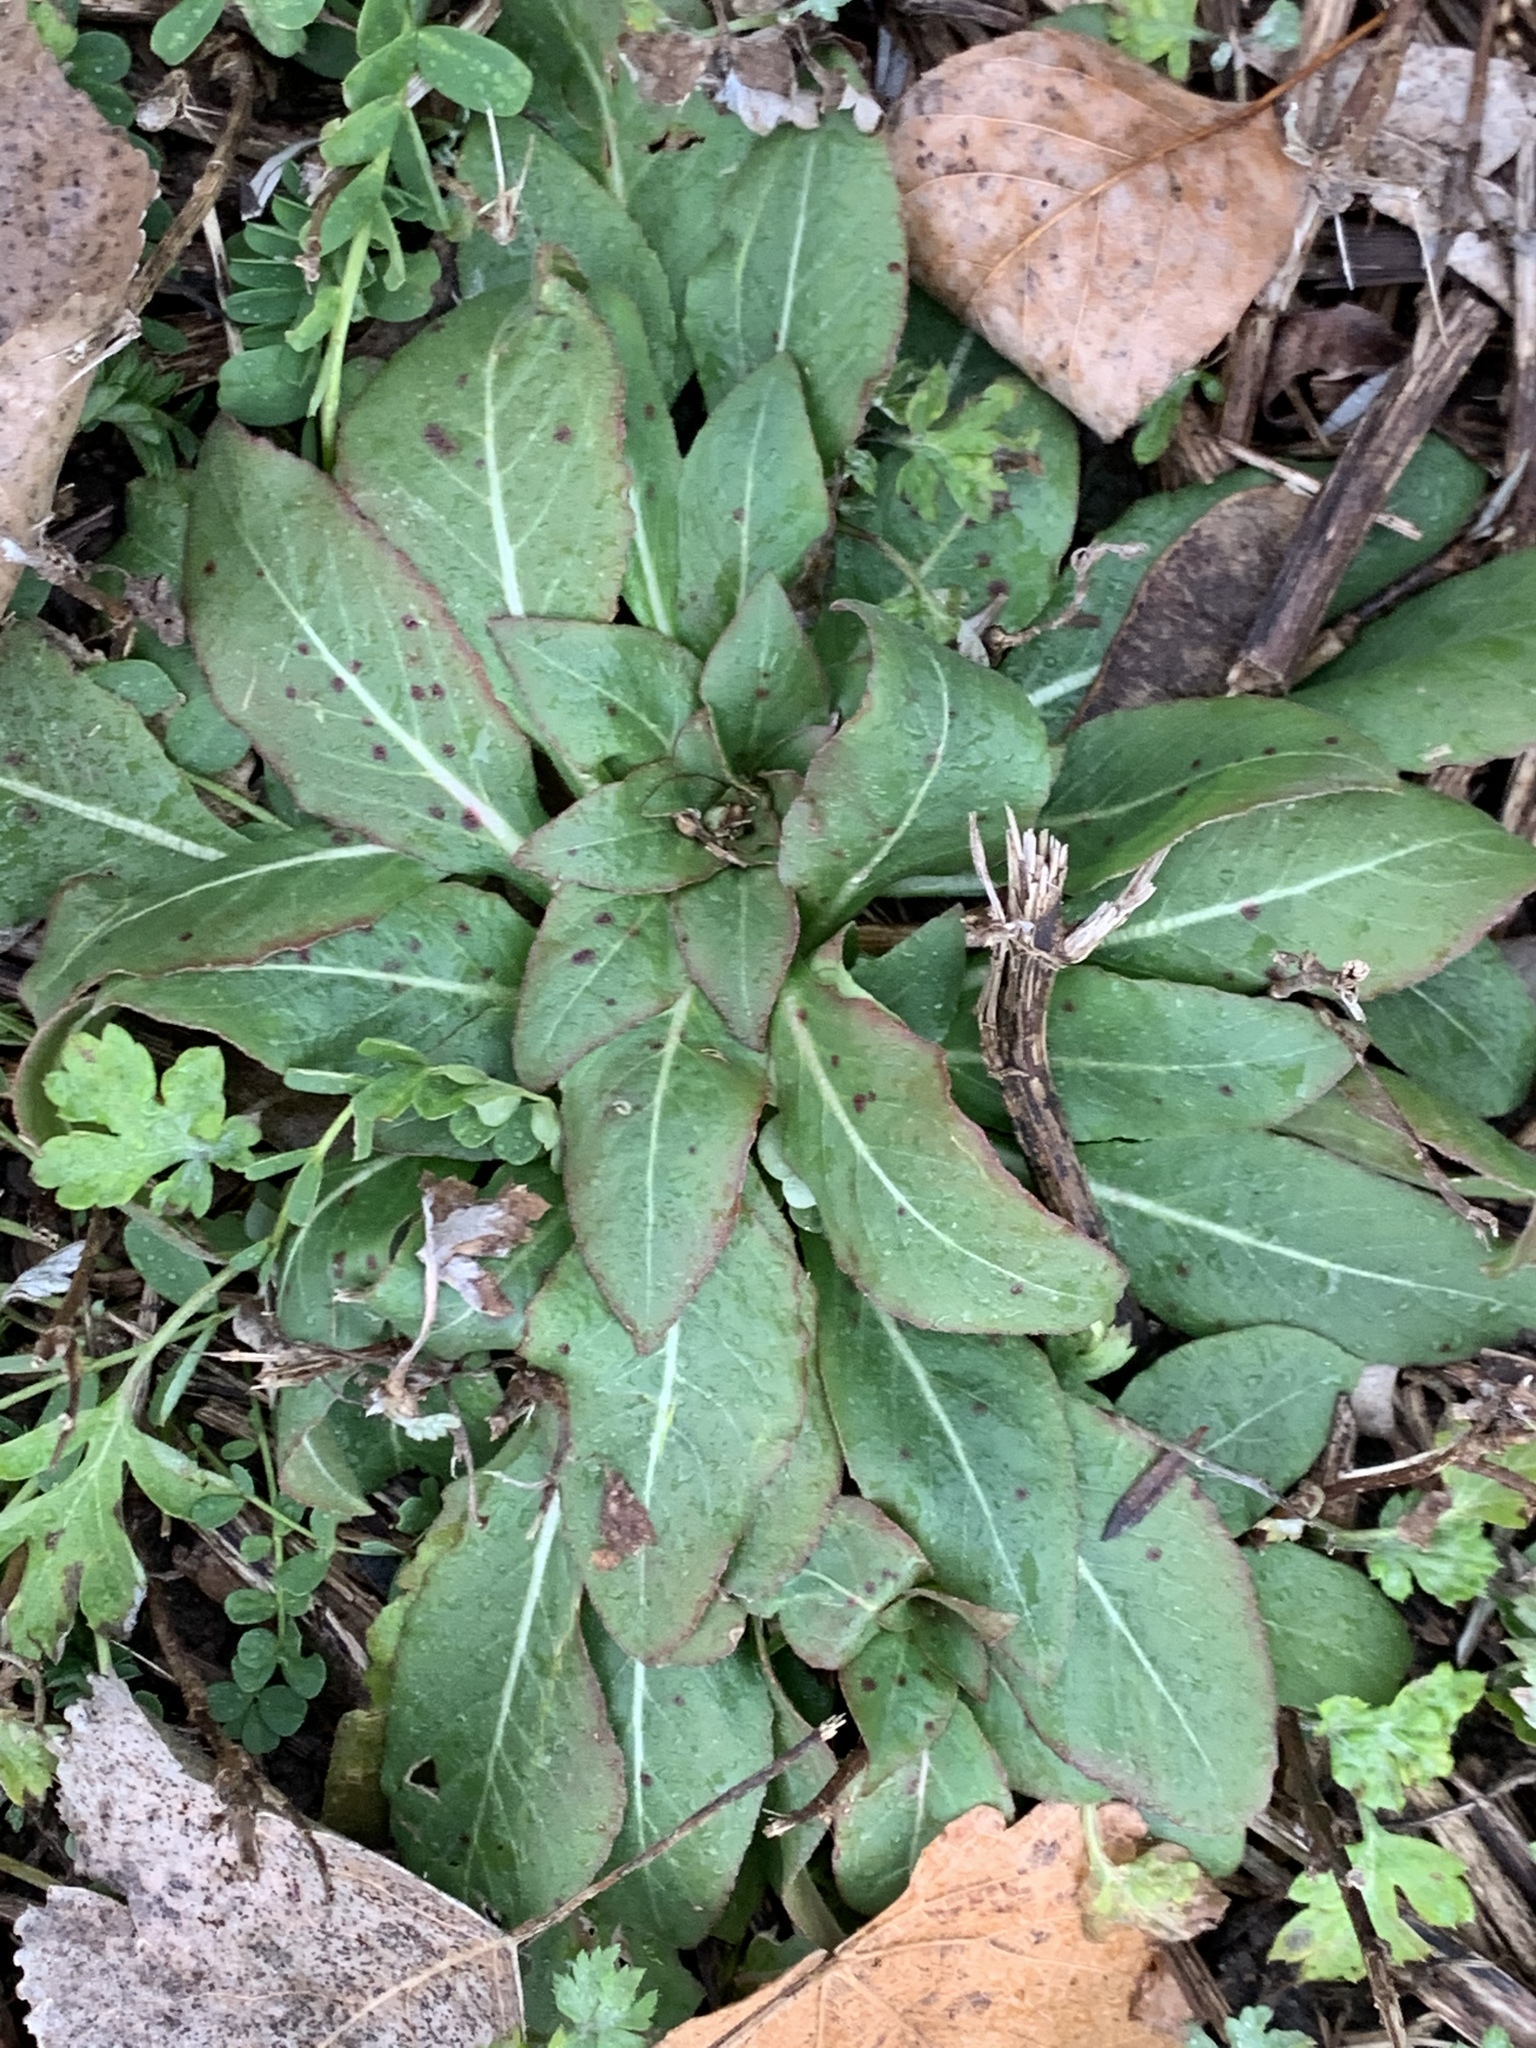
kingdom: Plantae
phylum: Tracheophyta
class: Magnoliopsida
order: Myrtales
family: Onagraceae
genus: Oenothera
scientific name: Oenothera biennis
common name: Common evening-primrose
